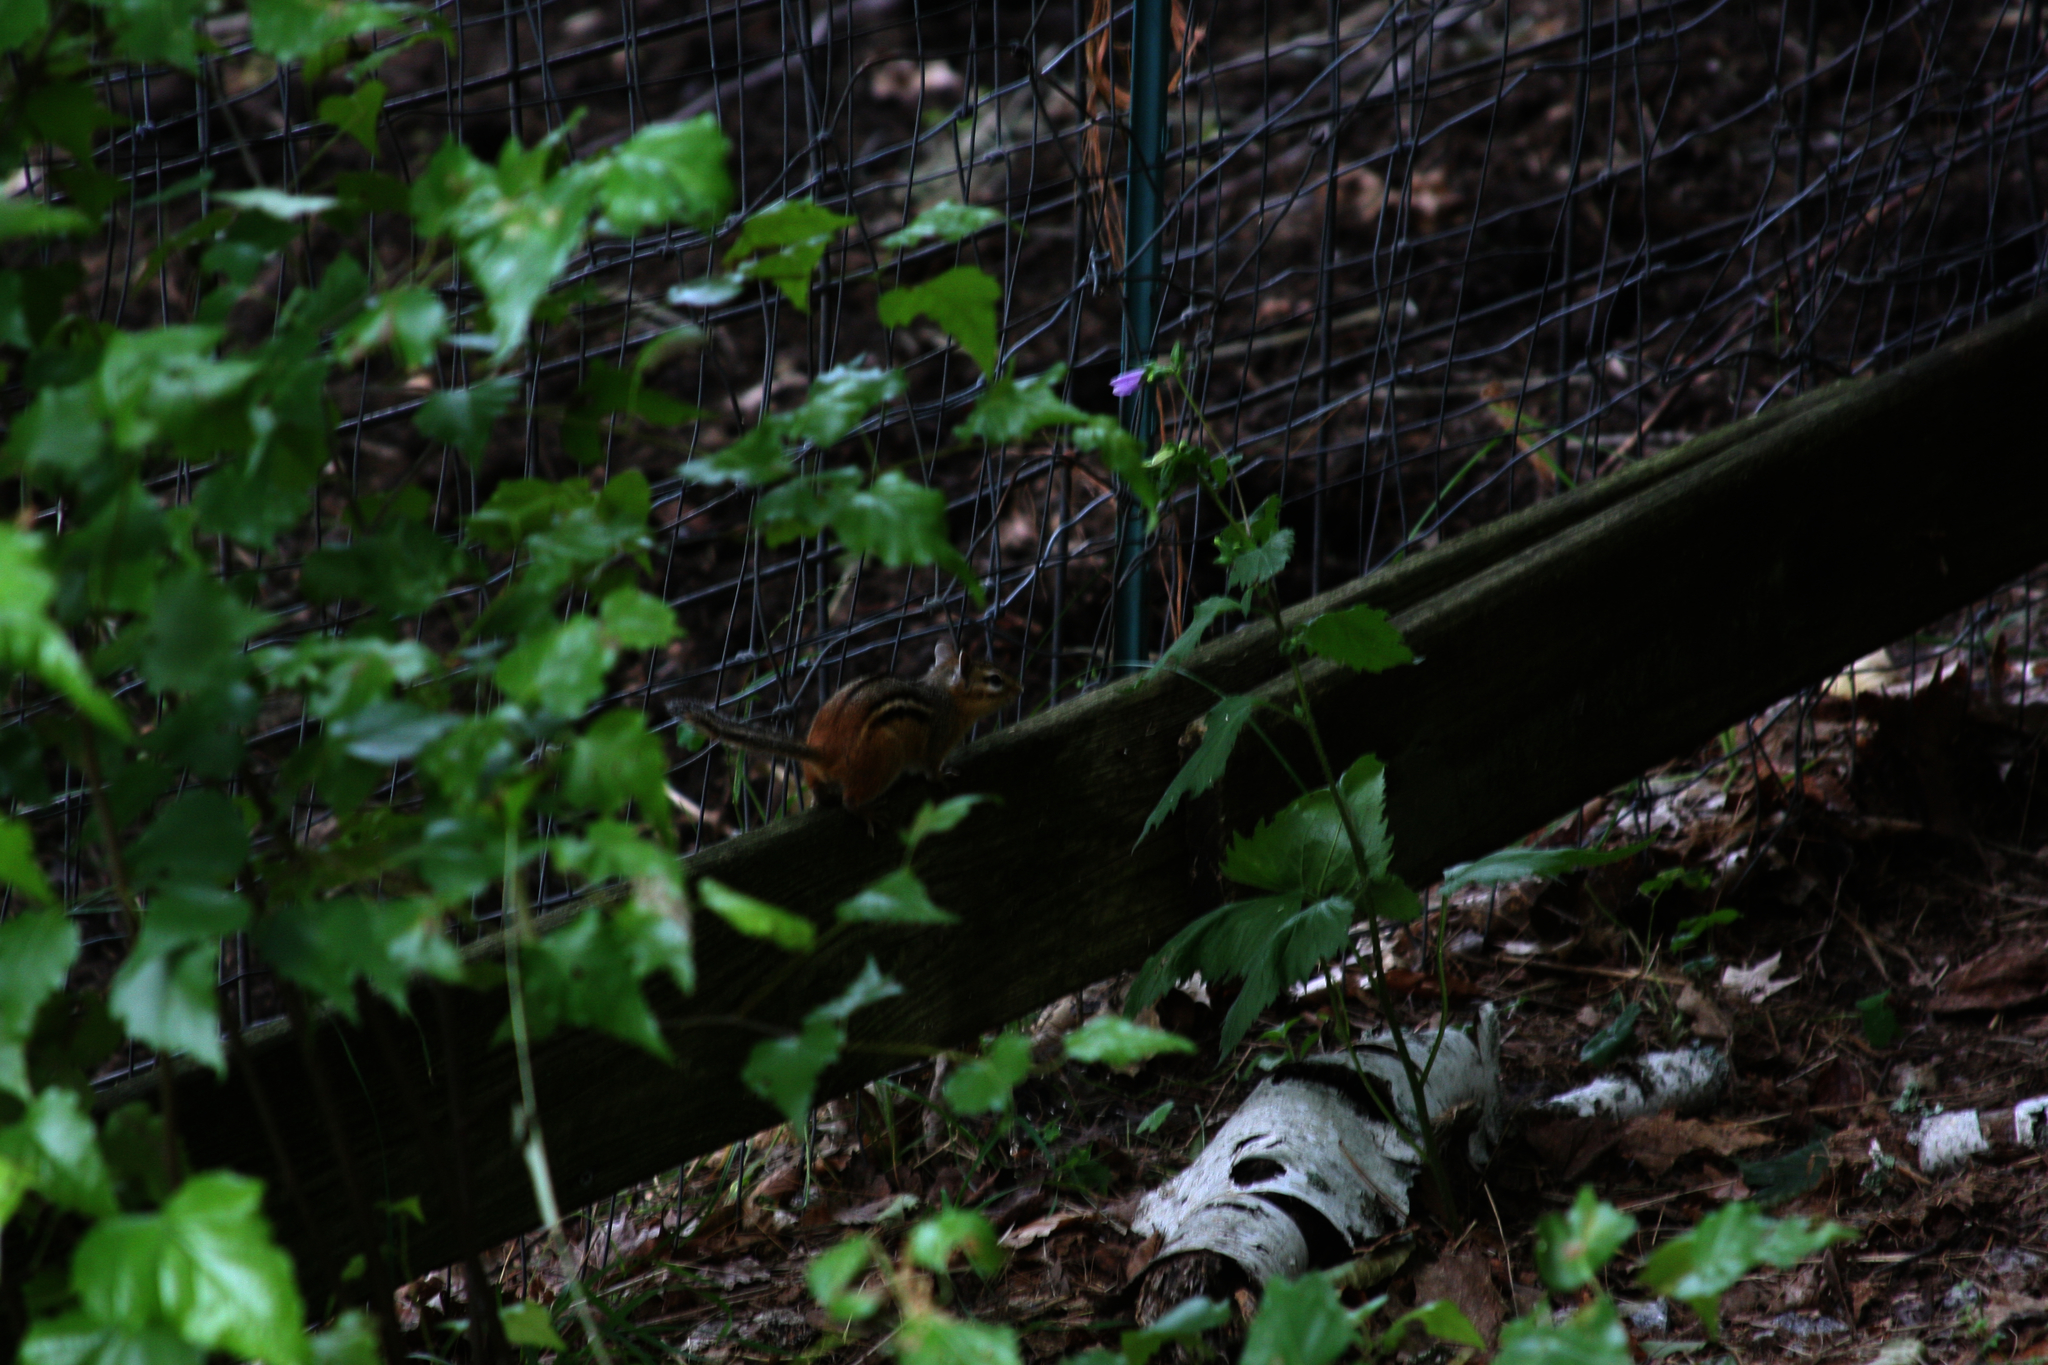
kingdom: Animalia
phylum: Chordata
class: Mammalia
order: Rodentia
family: Sciuridae
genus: Tamias
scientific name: Tamias striatus
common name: Eastern chipmunk
